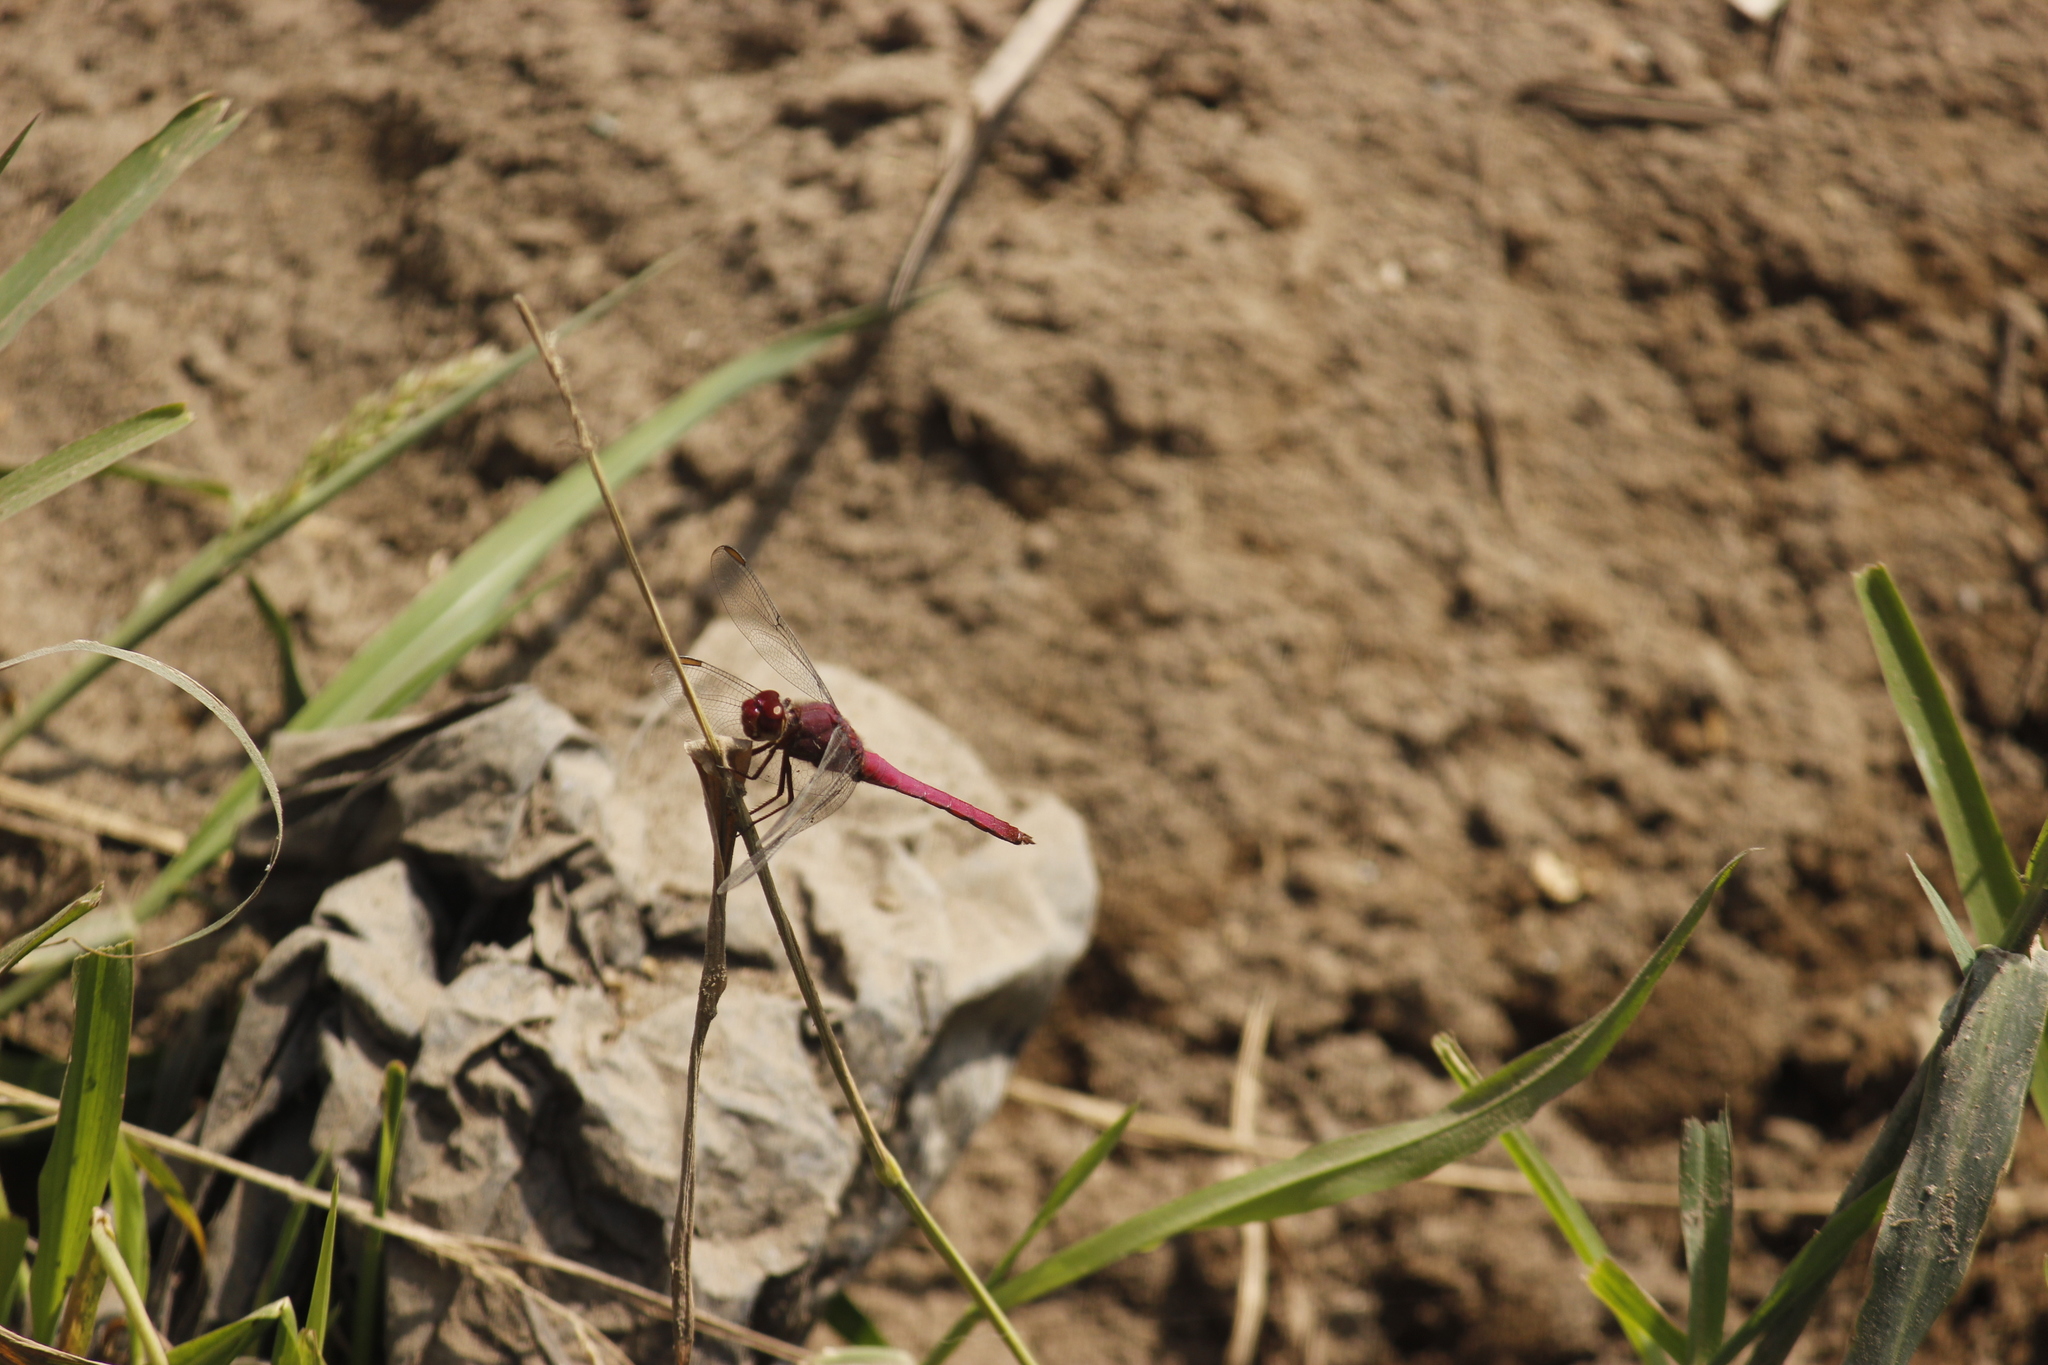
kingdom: Animalia
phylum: Arthropoda
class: Insecta
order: Odonata
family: Libellulidae
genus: Orthemis
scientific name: Orthemis discolor
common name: Carmine skimmer
